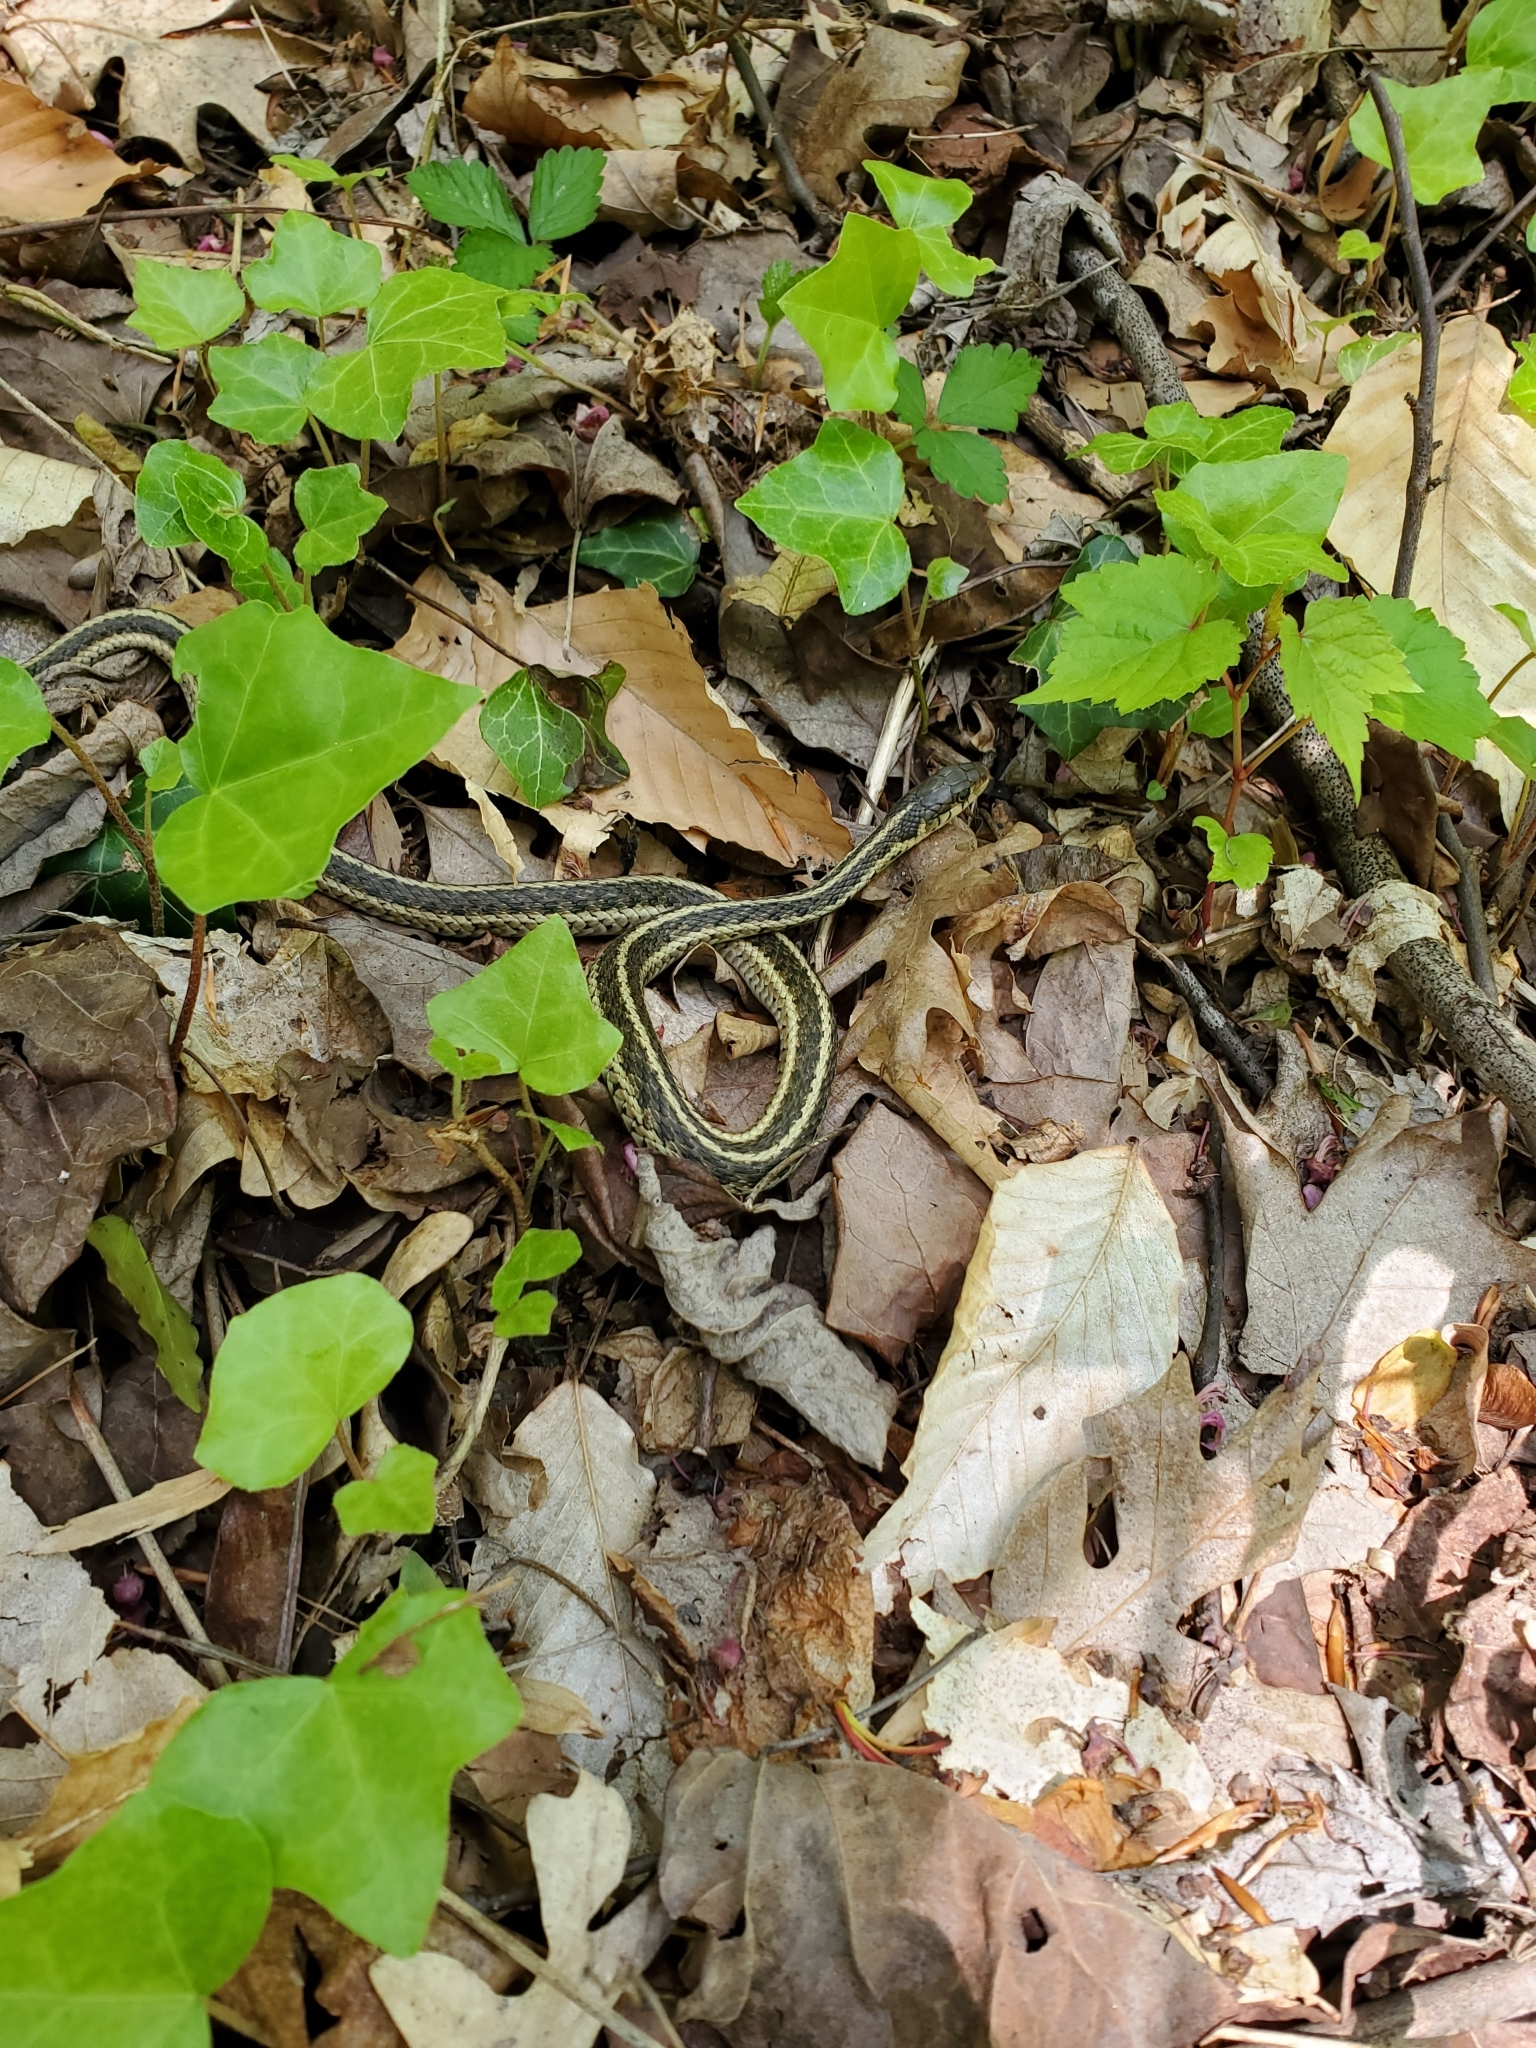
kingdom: Animalia
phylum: Chordata
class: Squamata
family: Colubridae
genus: Thamnophis
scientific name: Thamnophis sirtalis
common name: Common garter snake
